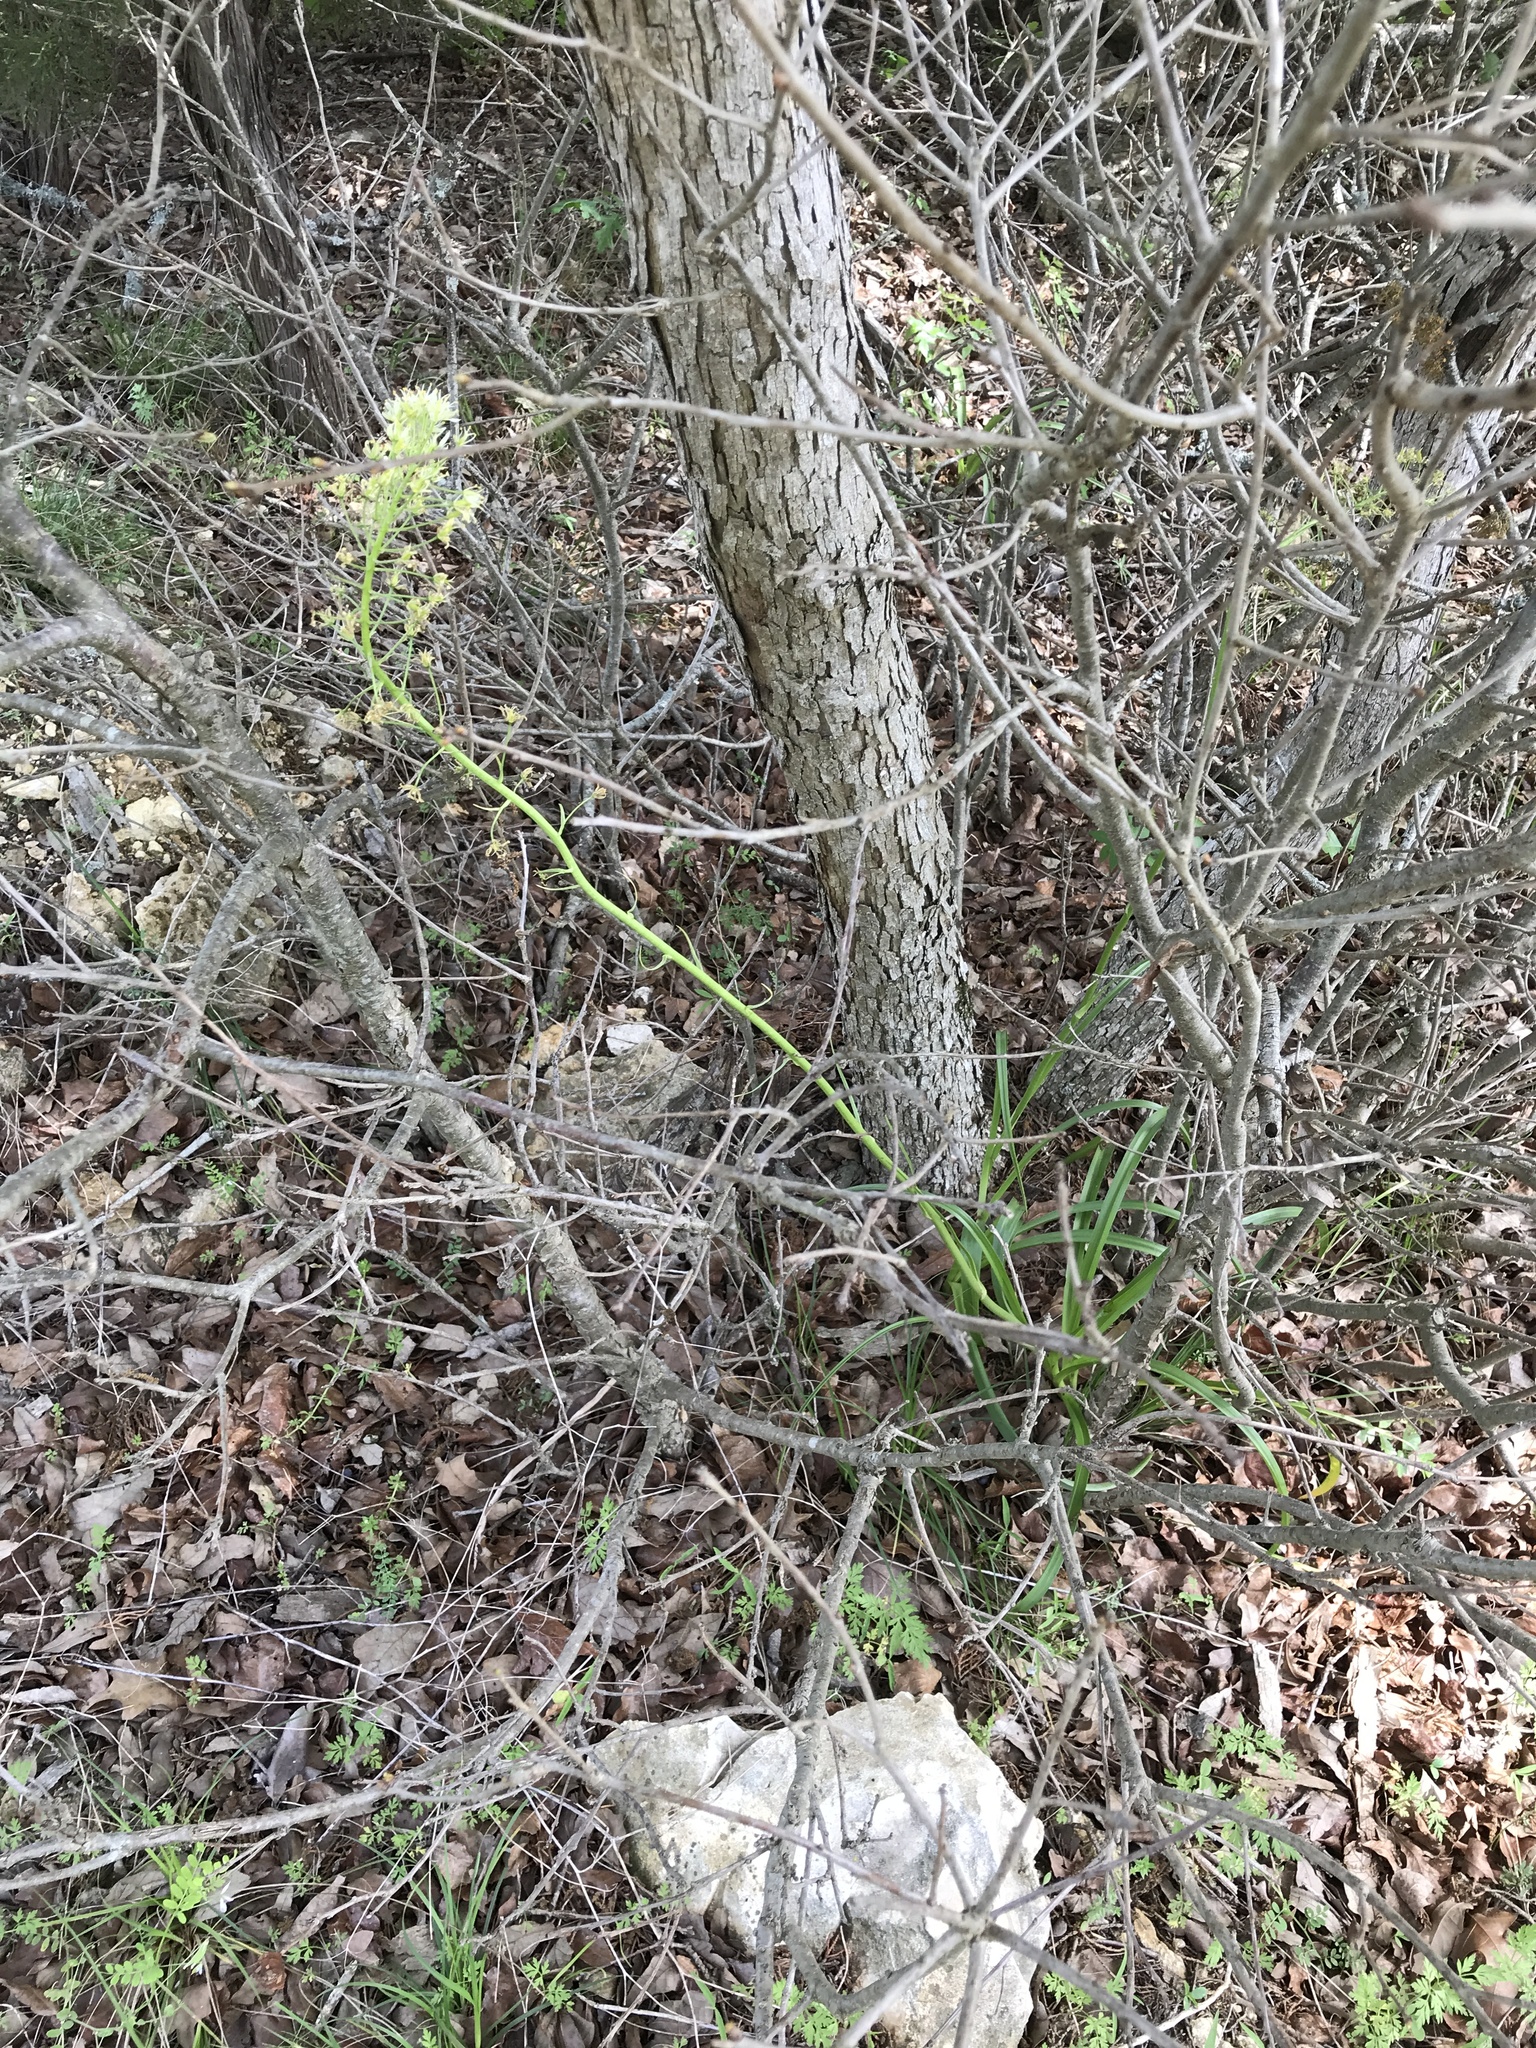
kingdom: Plantae
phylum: Tracheophyta
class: Liliopsida
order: Liliales
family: Melanthiaceae
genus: Toxicoscordion
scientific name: Toxicoscordion nuttallii
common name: Poison sego
